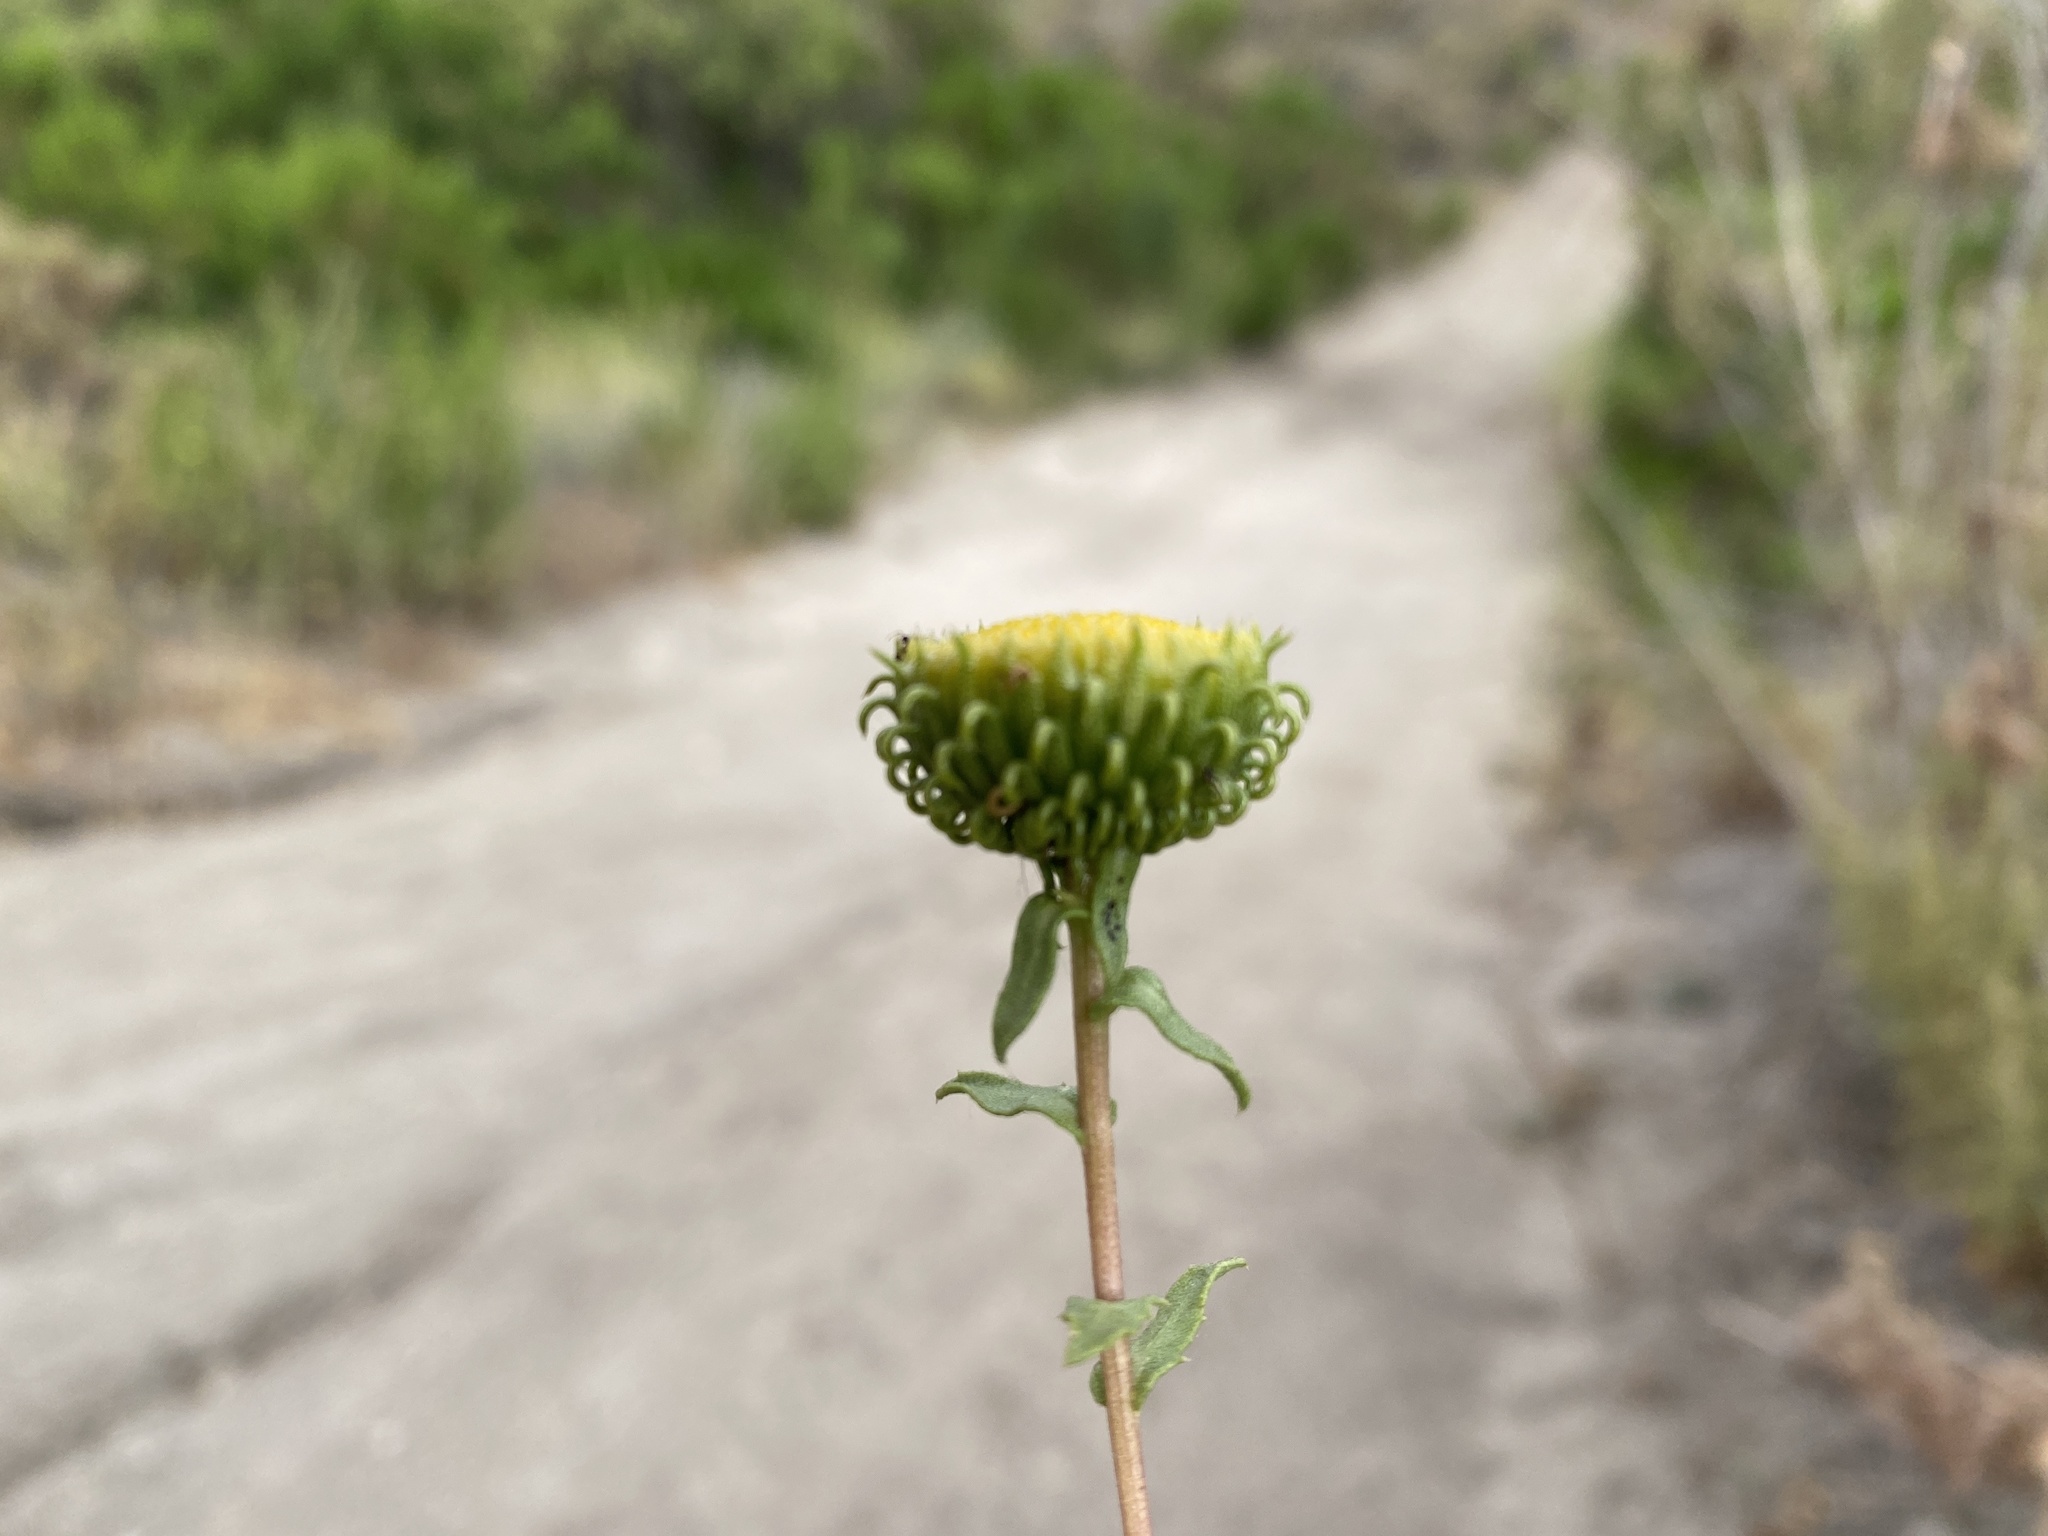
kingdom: Plantae
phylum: Tracheophyta
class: Magnoliopsida
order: Asterales
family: Asteraceae
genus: Grindelia
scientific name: Grindelia hirsutula
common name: Hairy gumweed
